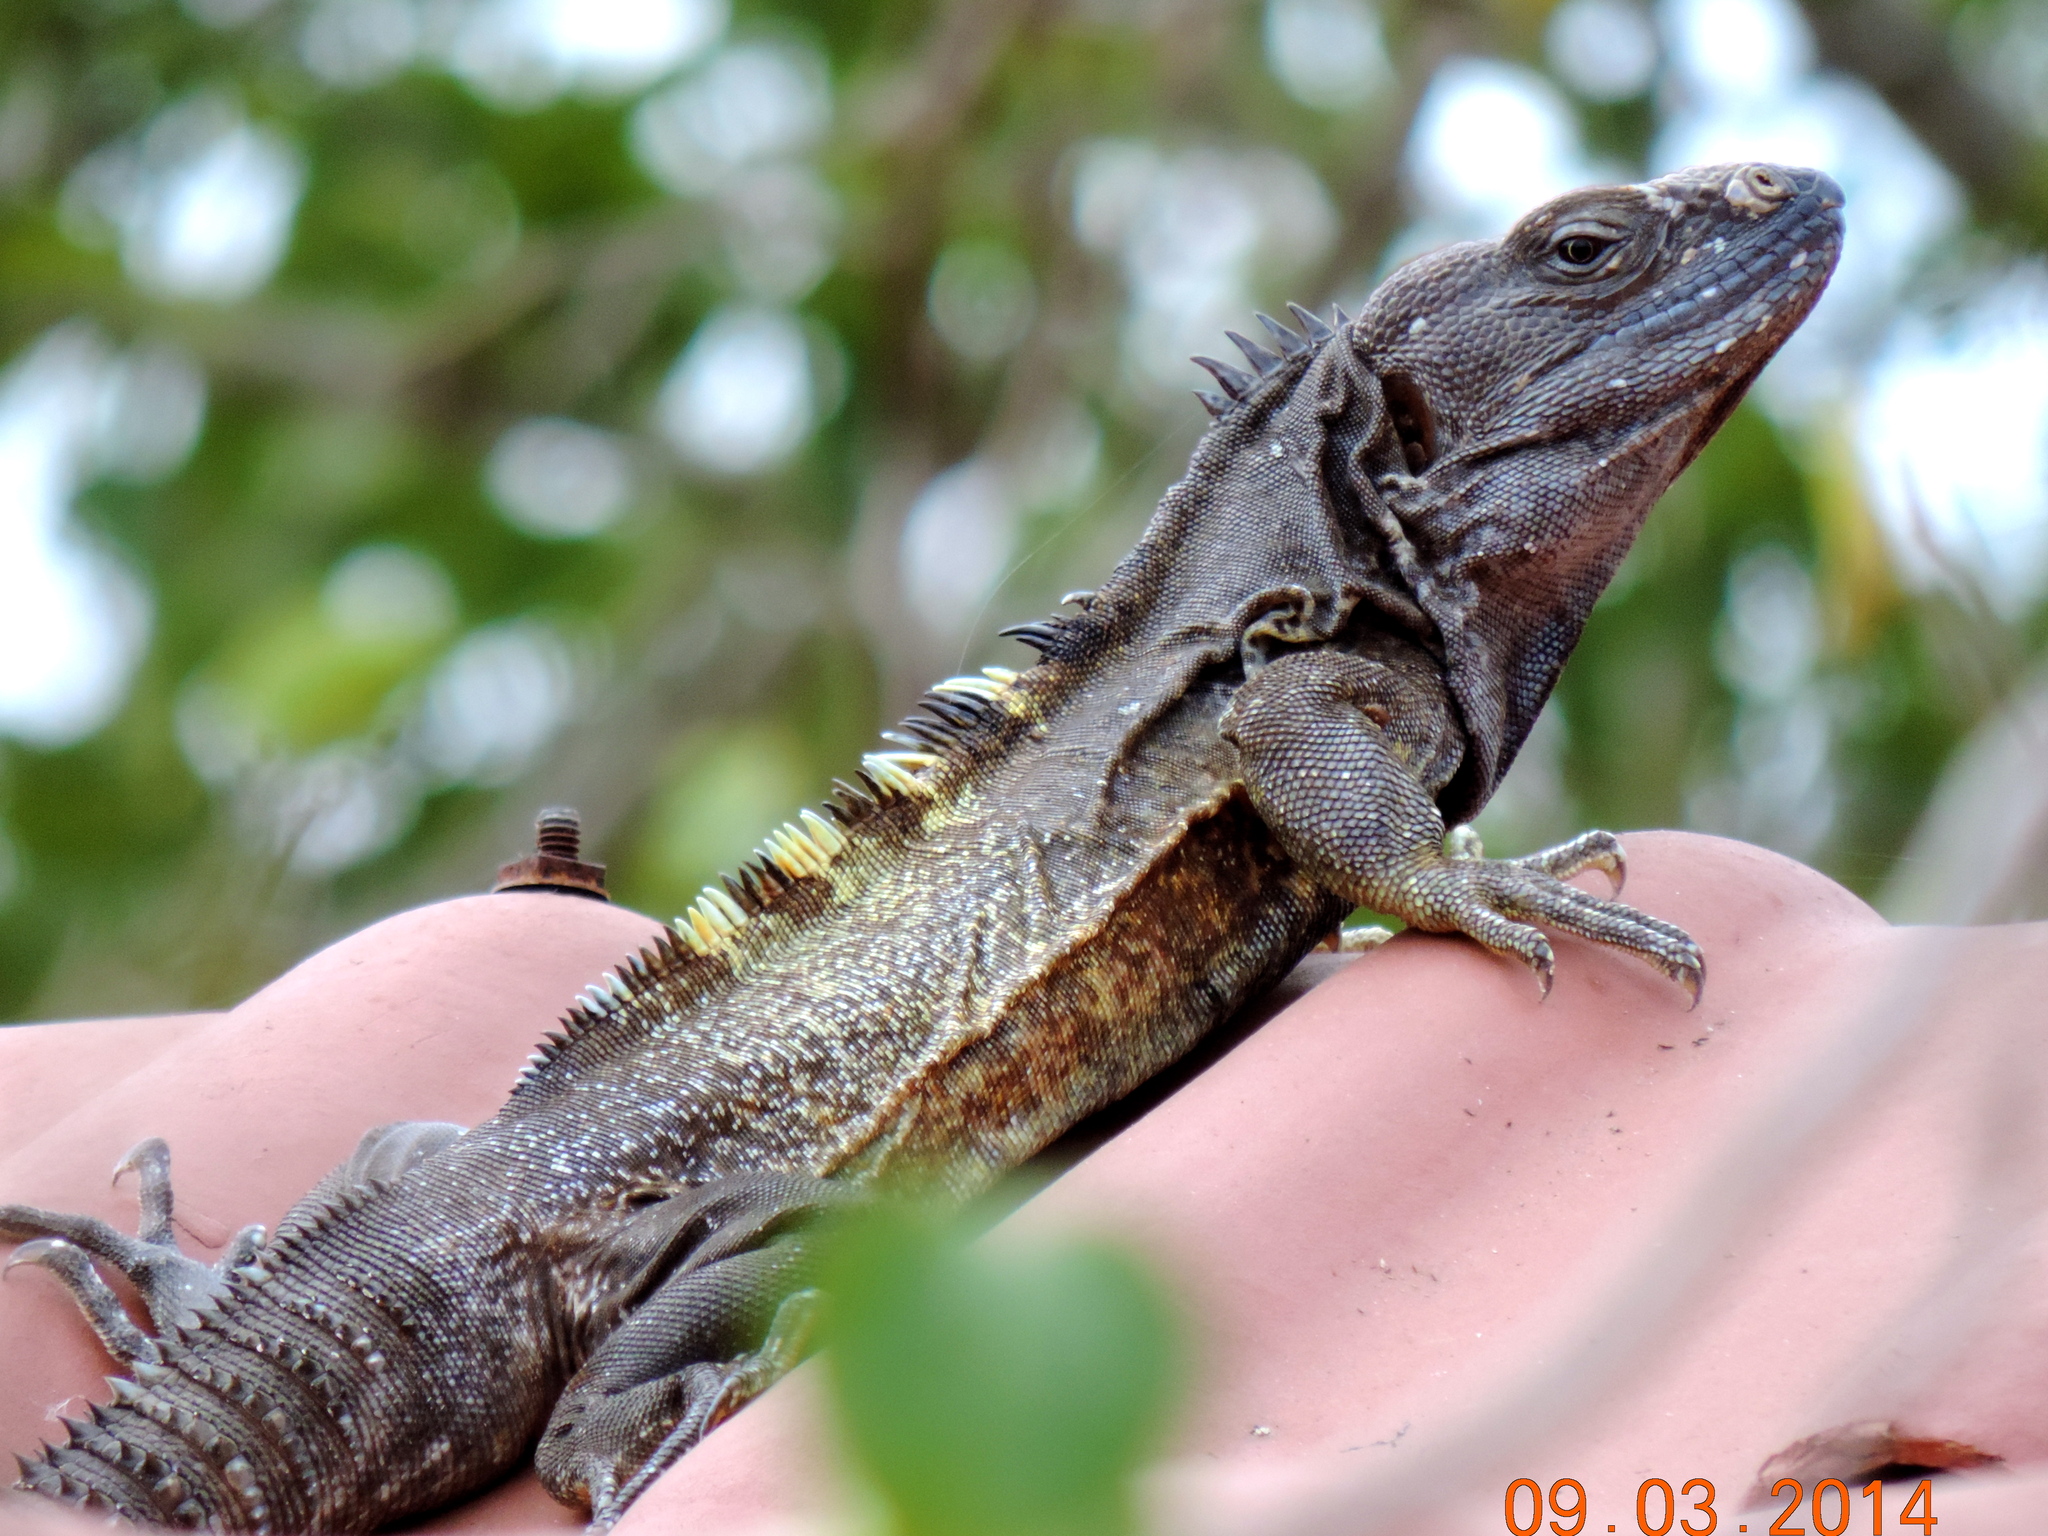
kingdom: Animalia
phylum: Chordata
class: Squamata
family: Iguanidae
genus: Ctenosaura
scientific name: Ctenosaura pectinata
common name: Guerreran spiny-tailed iguana
